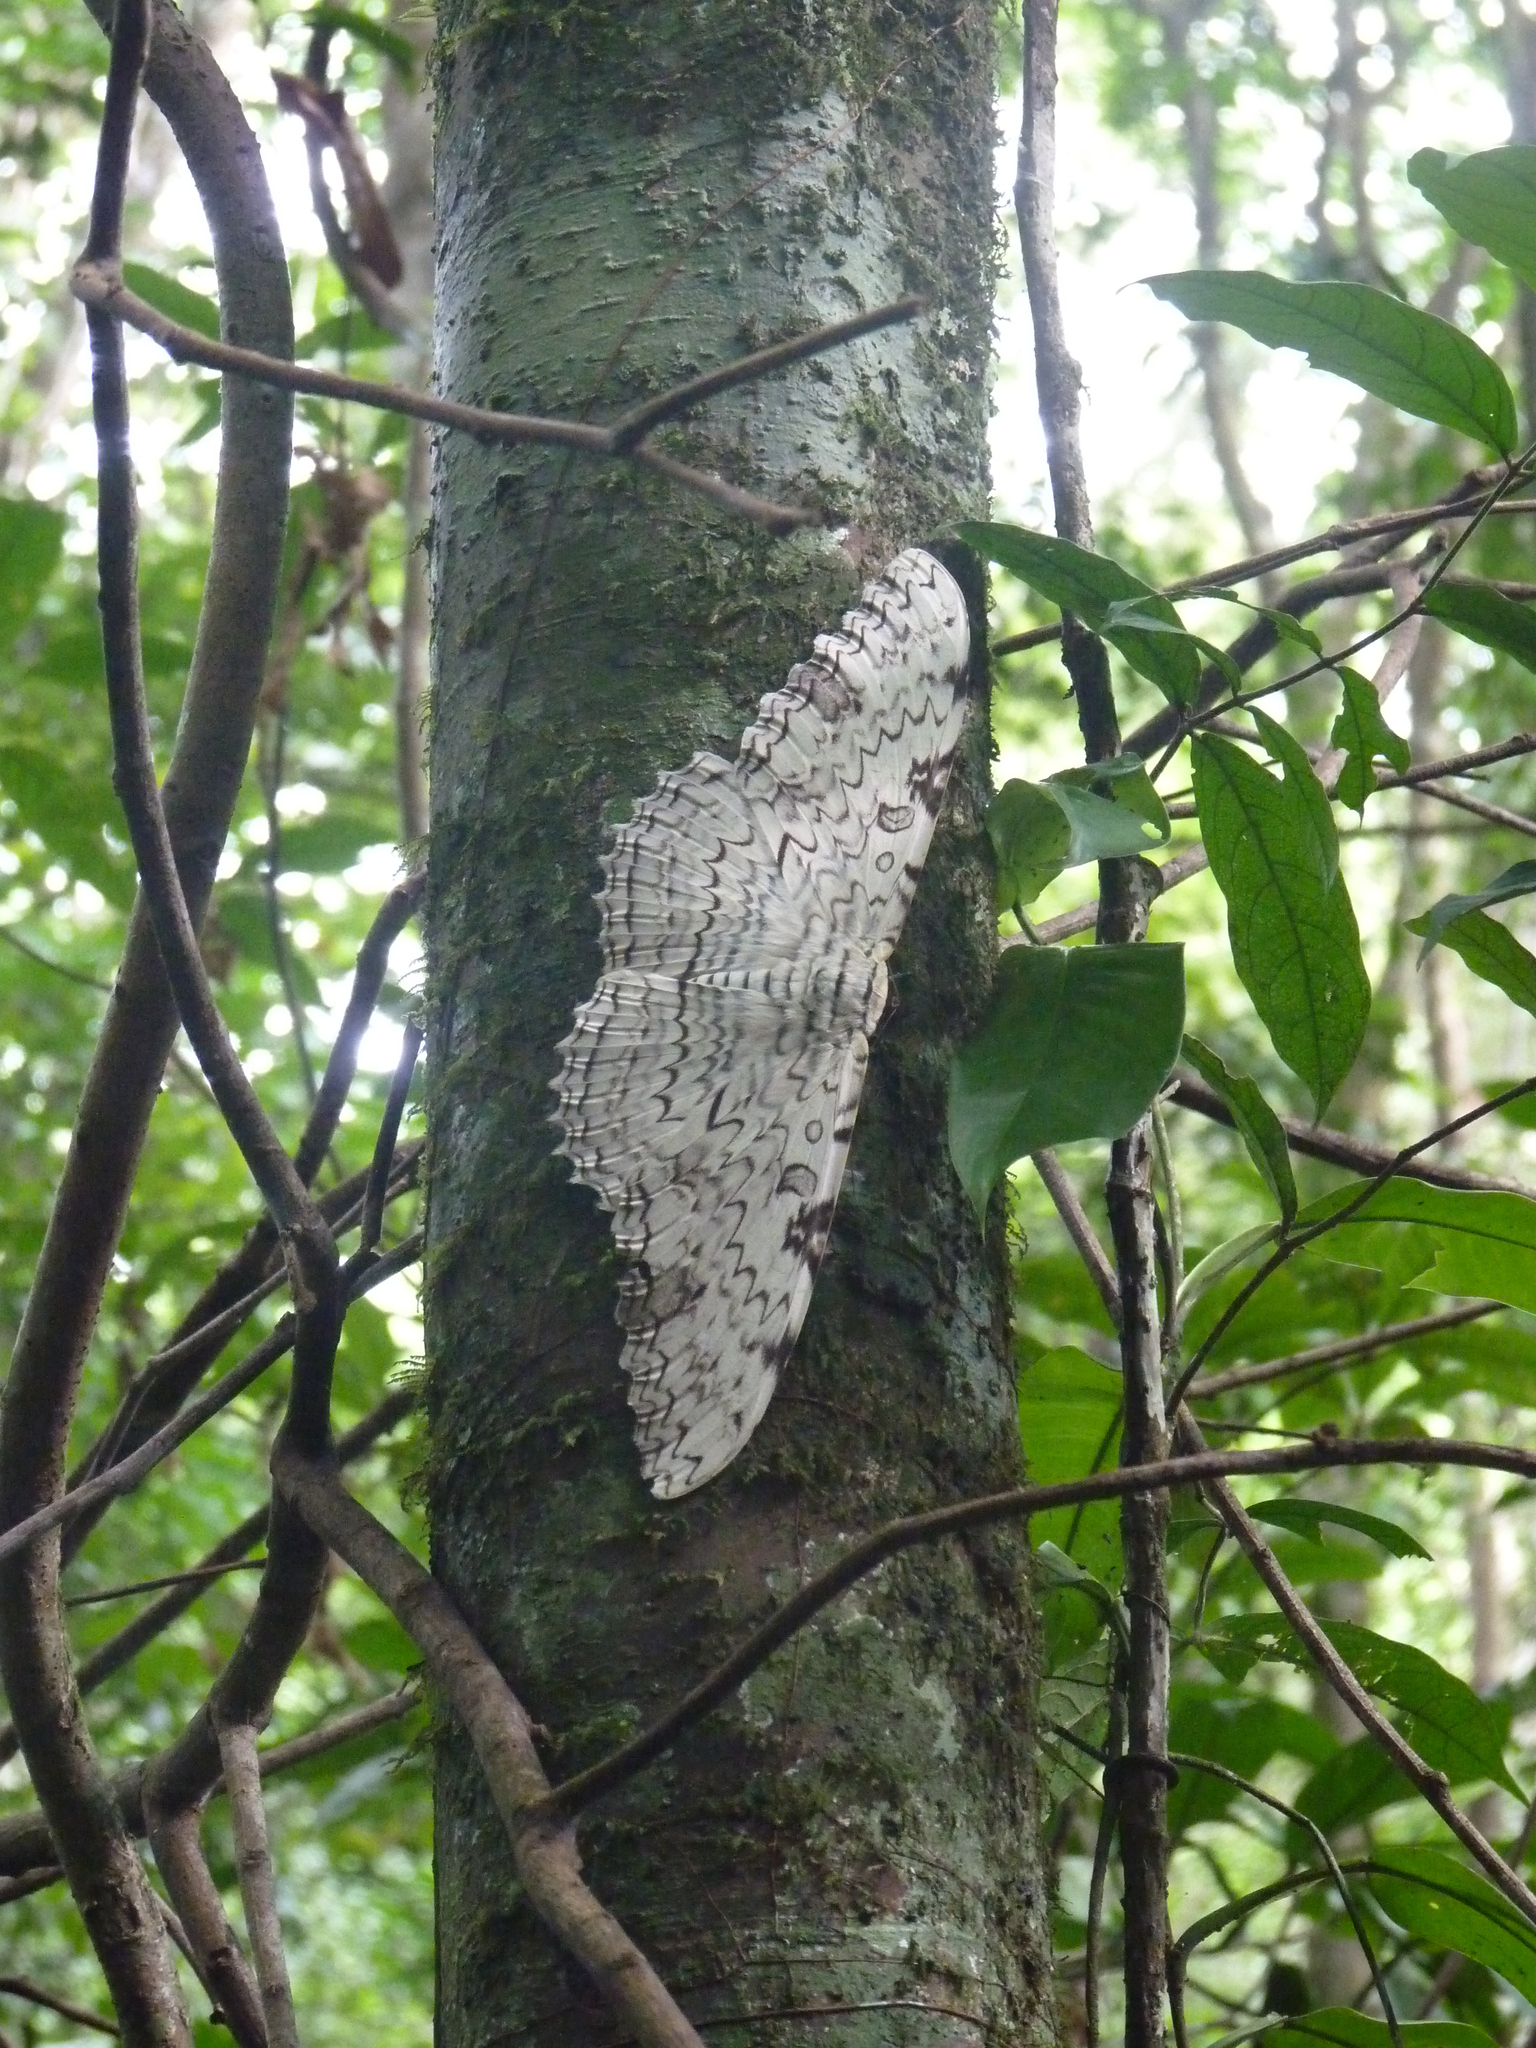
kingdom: Animalia
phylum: Arthropoda
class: Insecta
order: Lepidoptera
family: Erebidae
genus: Thysania
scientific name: Thysania agrippina
